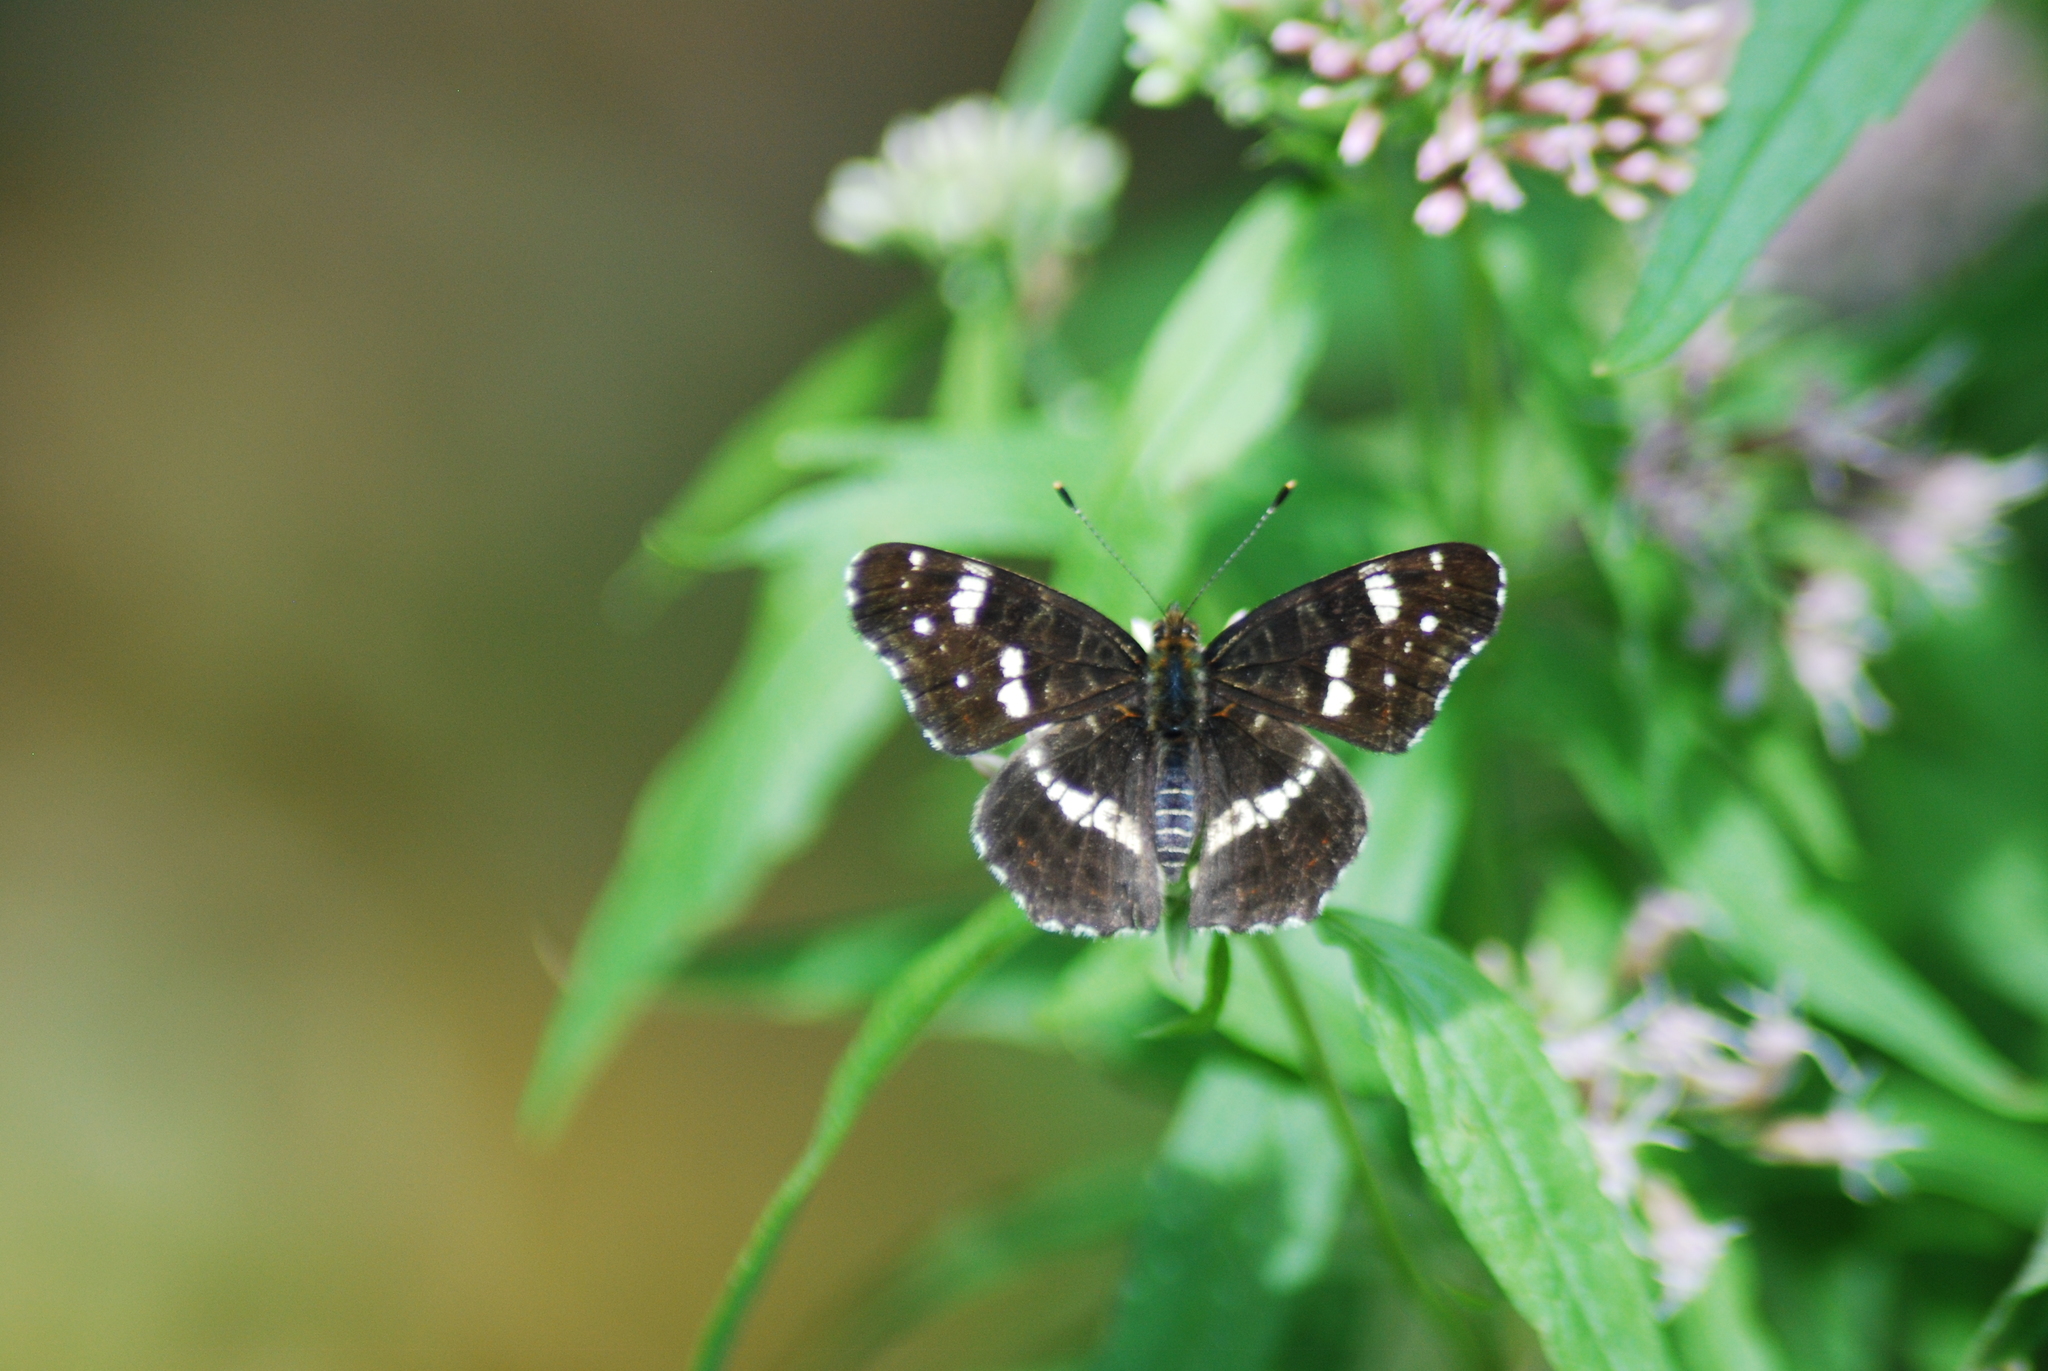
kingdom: Animalia
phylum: Arthropoda
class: Insecta
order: Lepidoptera
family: Nymphalidae
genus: Araschnia
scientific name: Araschnia levana
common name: Map butterfly
